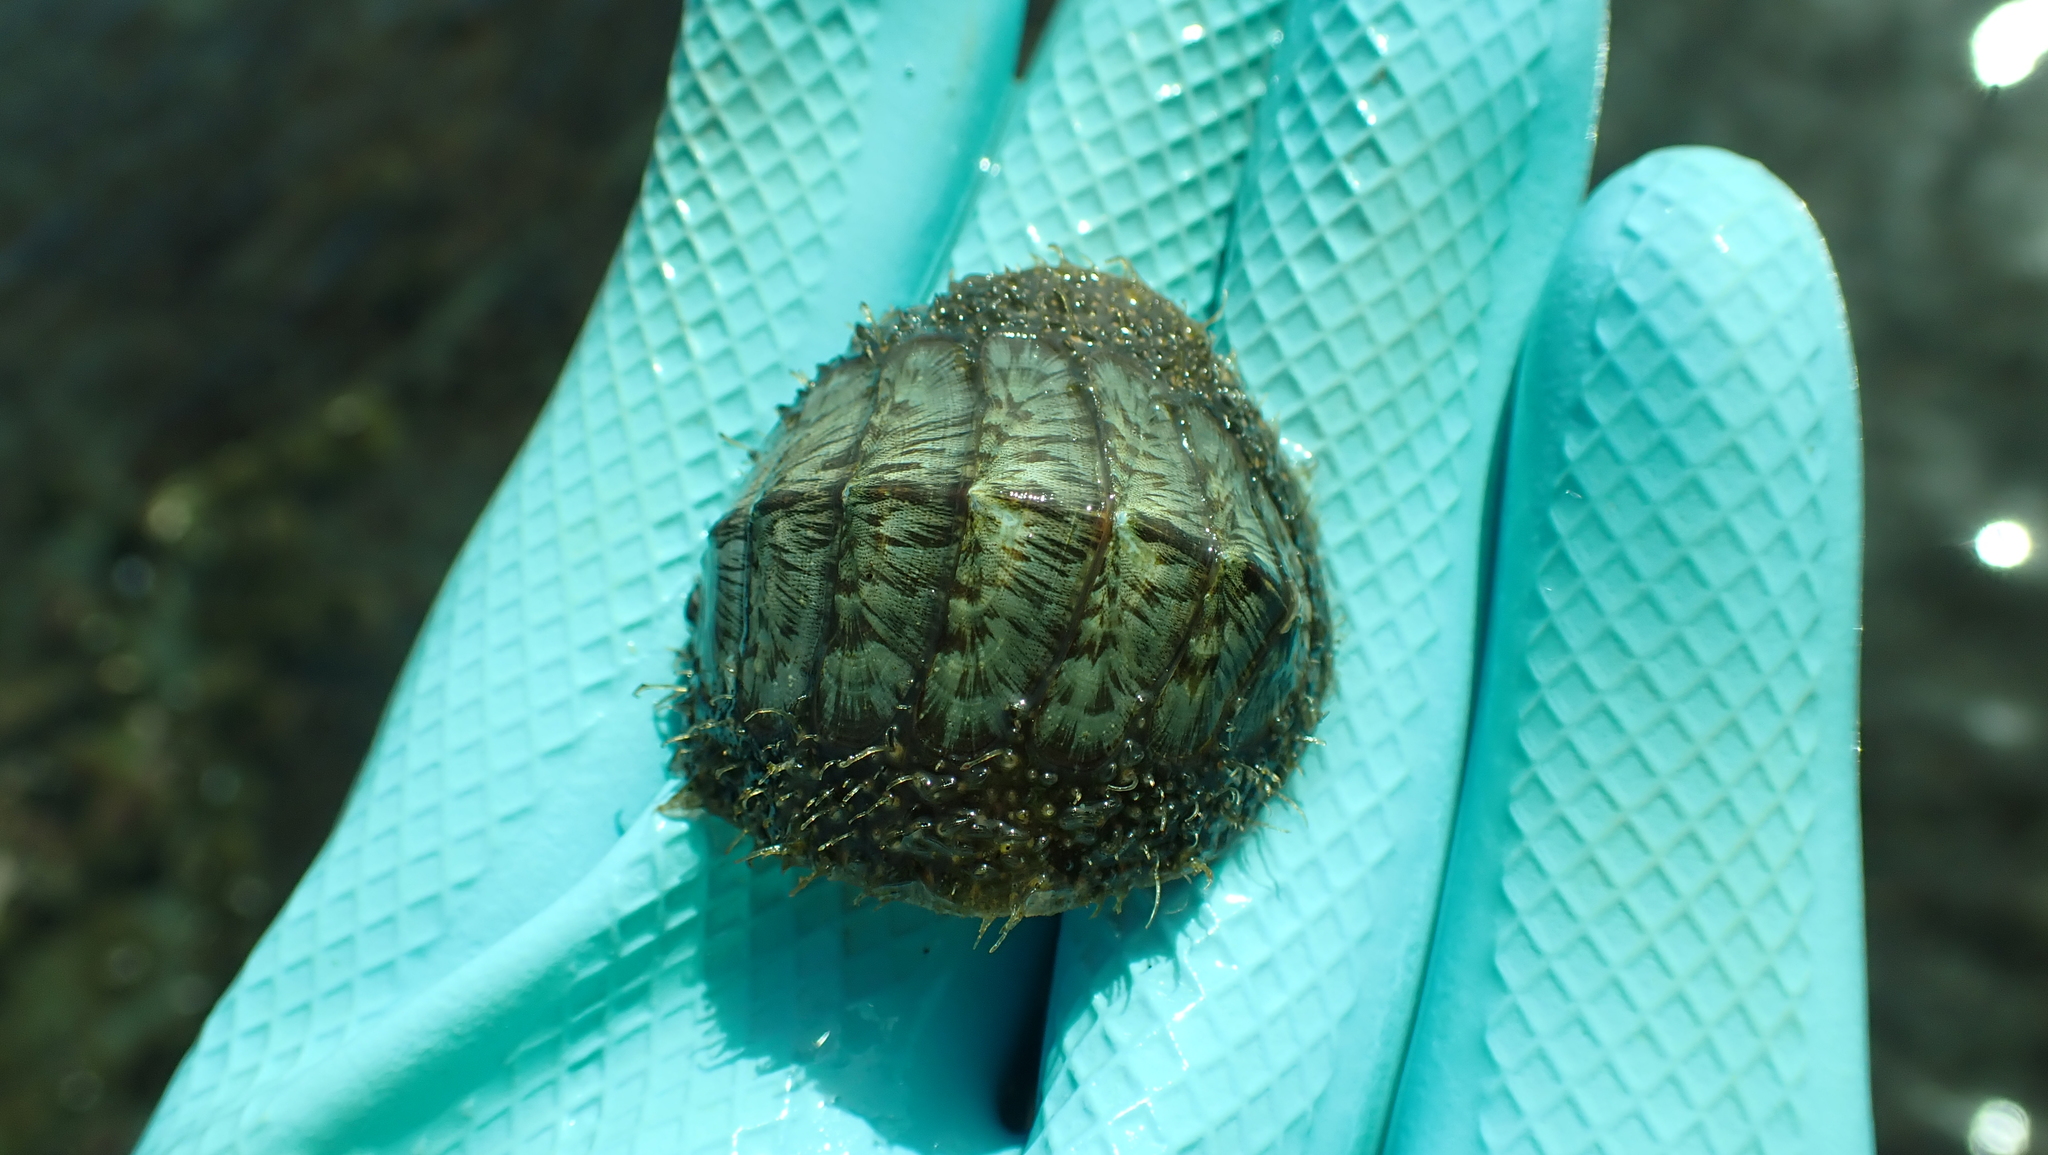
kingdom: Animalia
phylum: Mollusca
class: Polyplacophora
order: Chitonida
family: Mopaliidae
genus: Mopalia
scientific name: Mopalia lignosa
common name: Woody chiton
